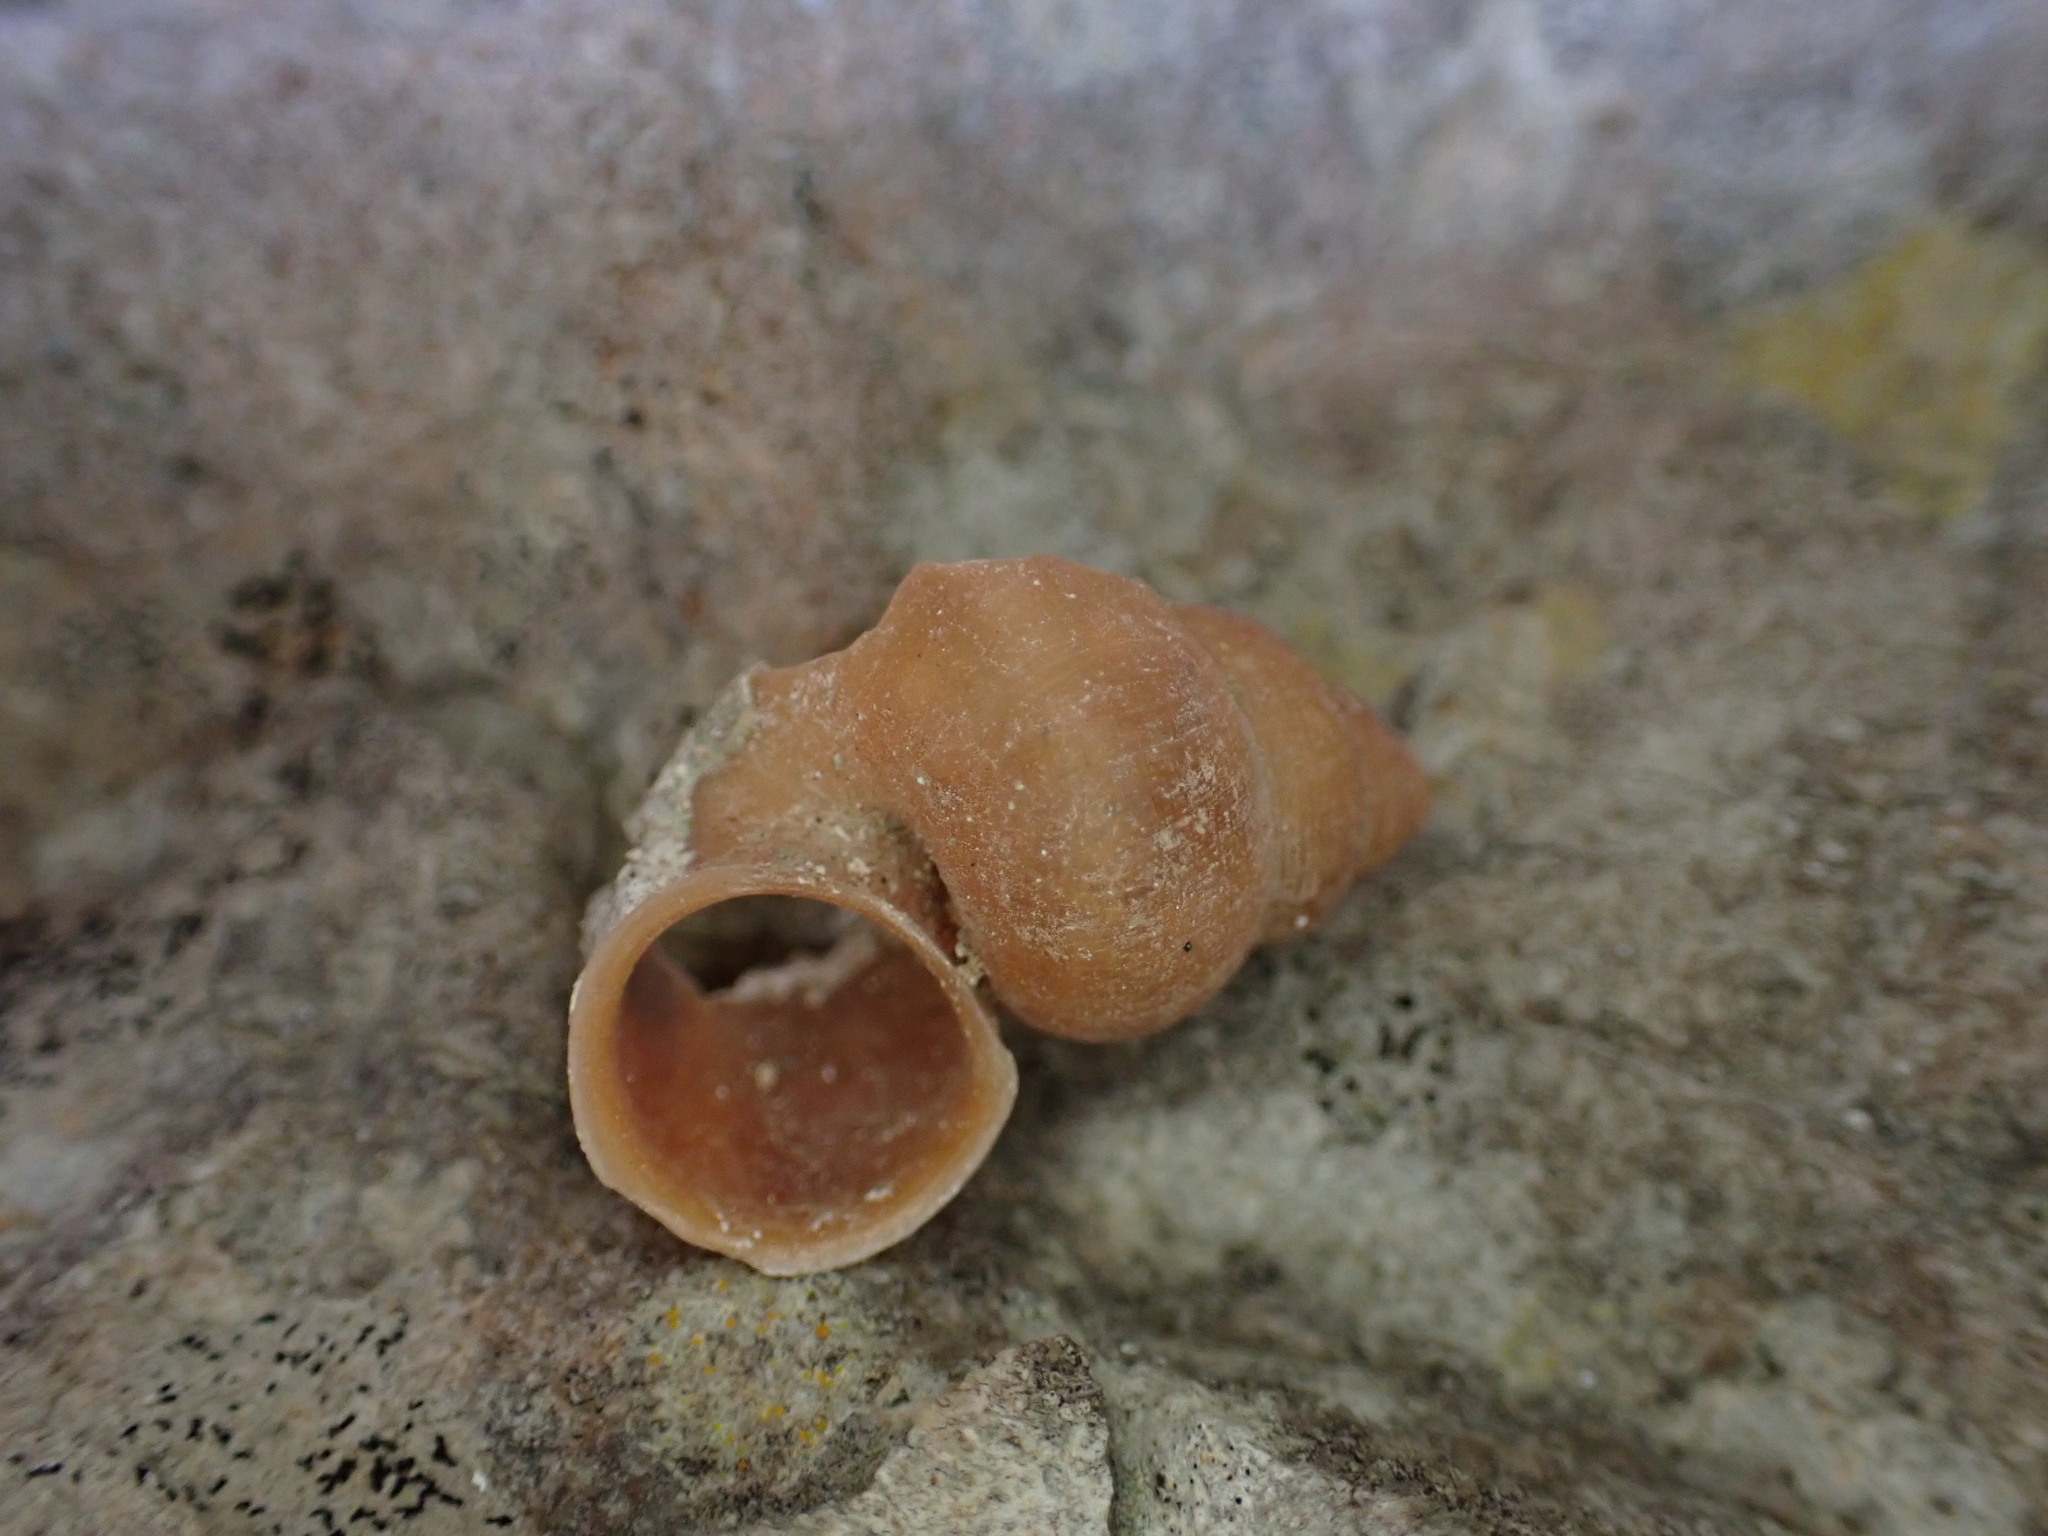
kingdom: Animalia
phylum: Mollusca
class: Gastropoda
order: Littorinimorpha
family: Pomatiidae
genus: Tudorella
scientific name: Tudorella sulcata
